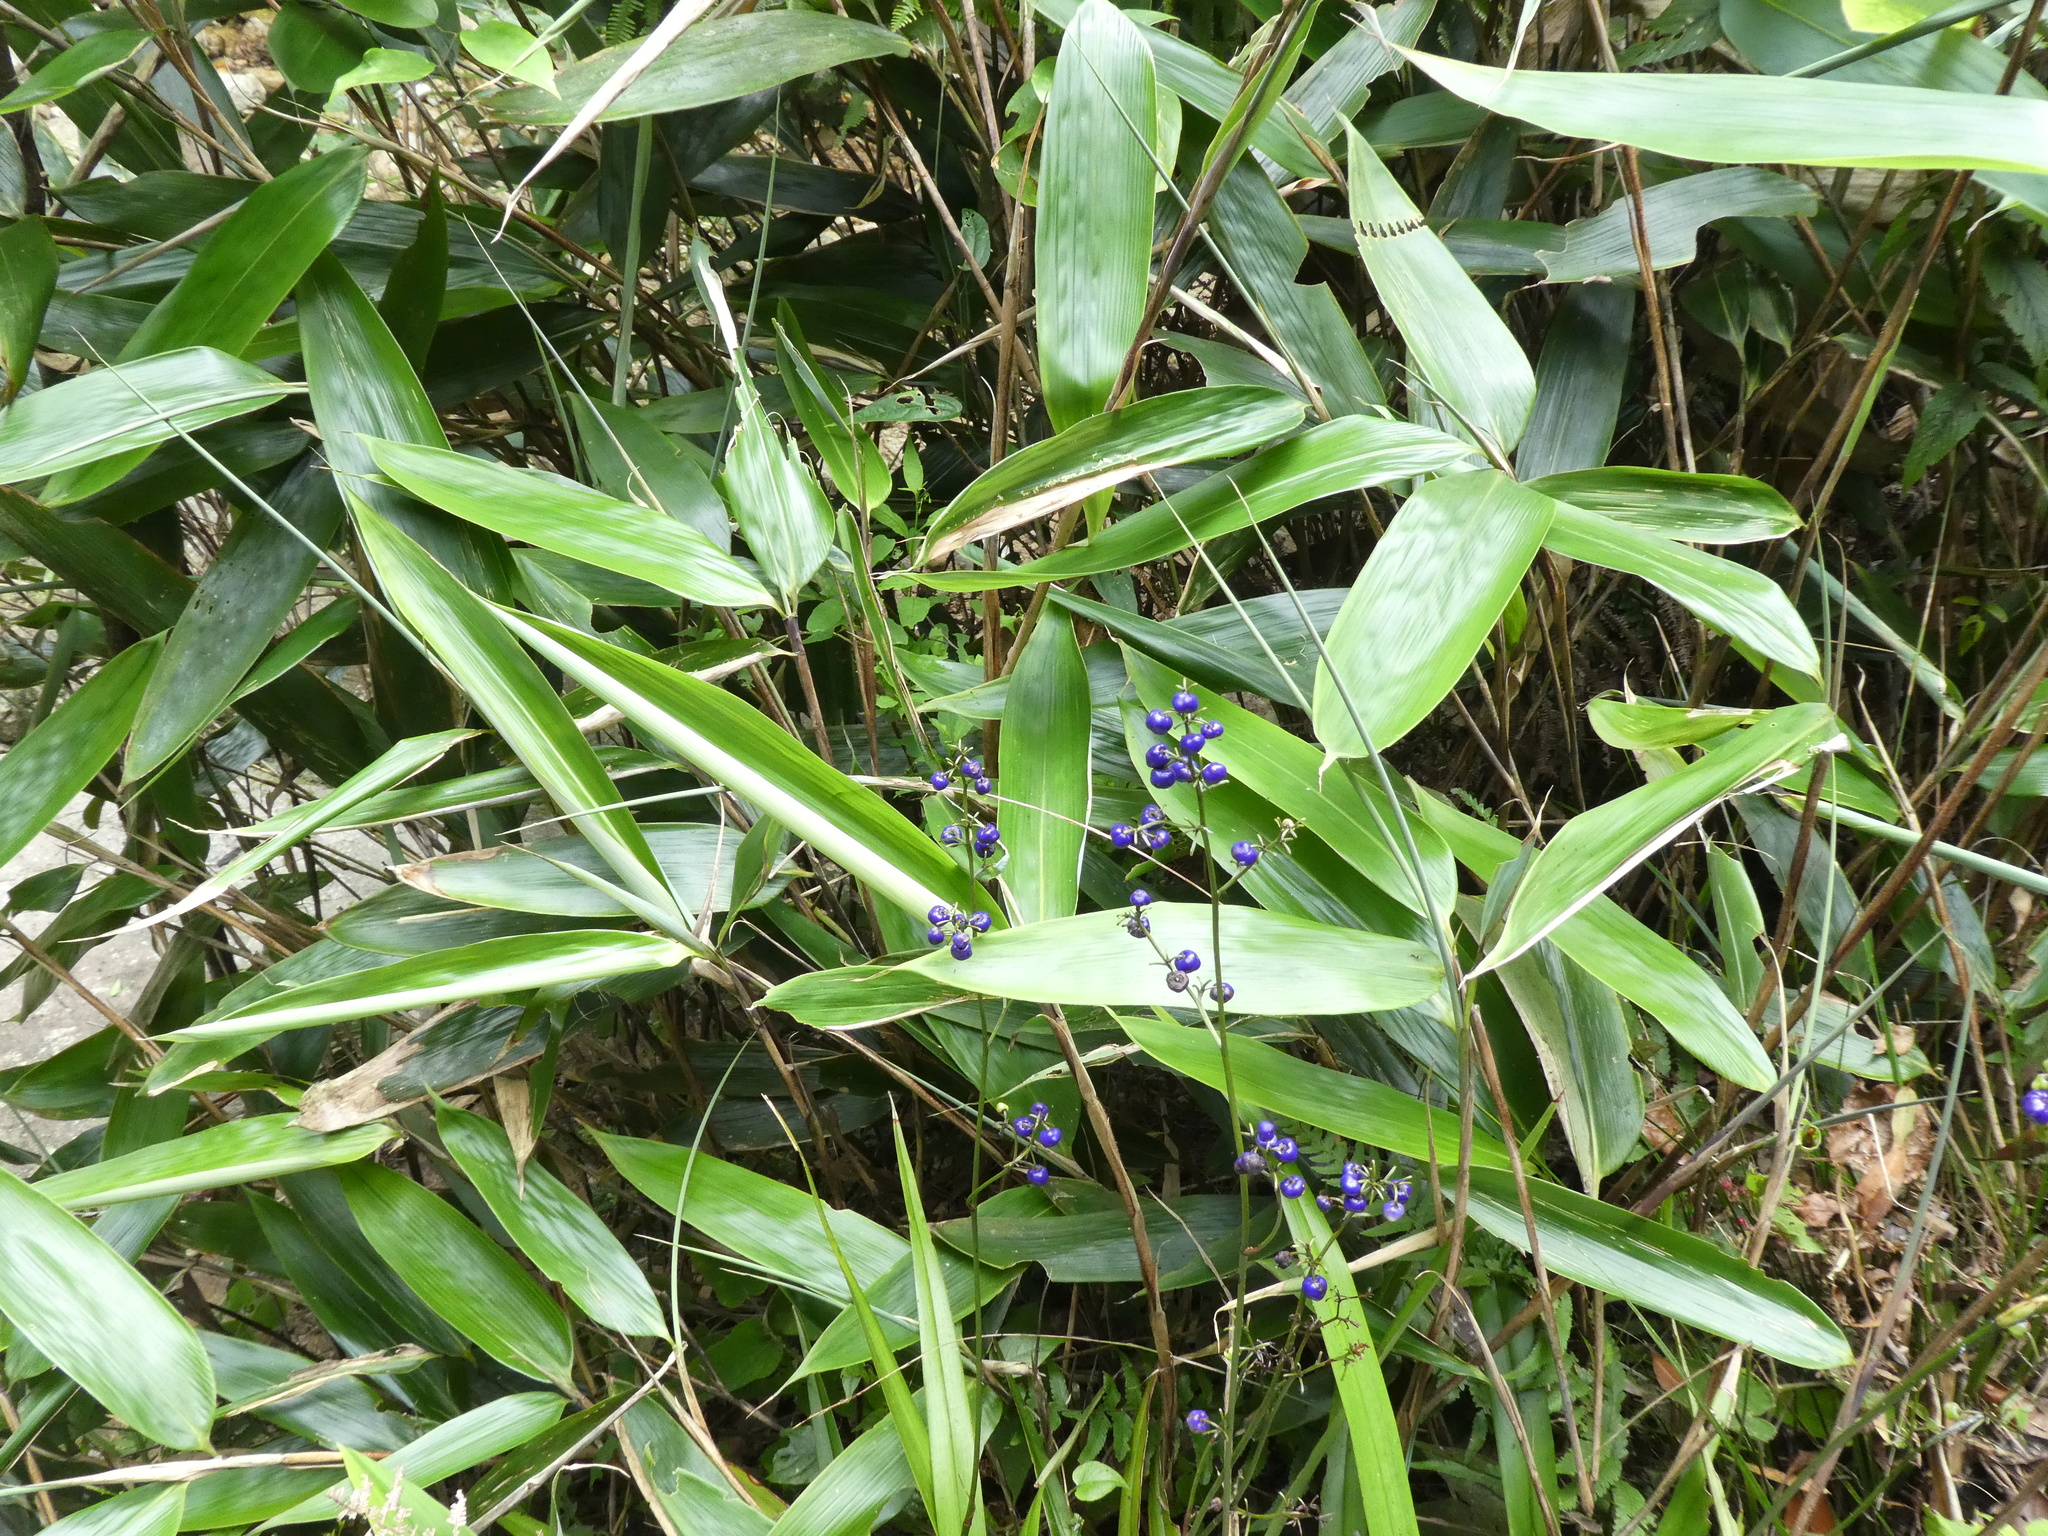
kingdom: Plantae
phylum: Tracheophyta
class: Liliopsida
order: Asparagales
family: Asphodelaceae
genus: Dianella
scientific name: Dianella ensifolia
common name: New zealand lilyplant
